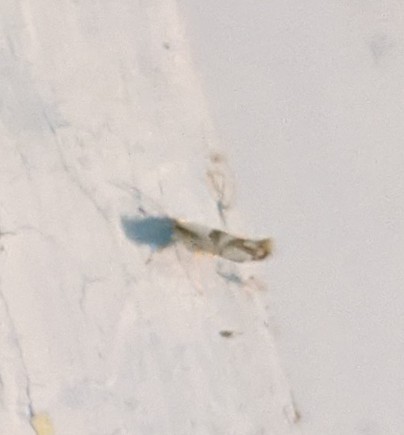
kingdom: Animalia
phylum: Arthropoda
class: Insecta
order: Lepidoptera
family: Argyresthiidae
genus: Argyresthia
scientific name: Argyresthia oreasella
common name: Cherry shoot borer moth
